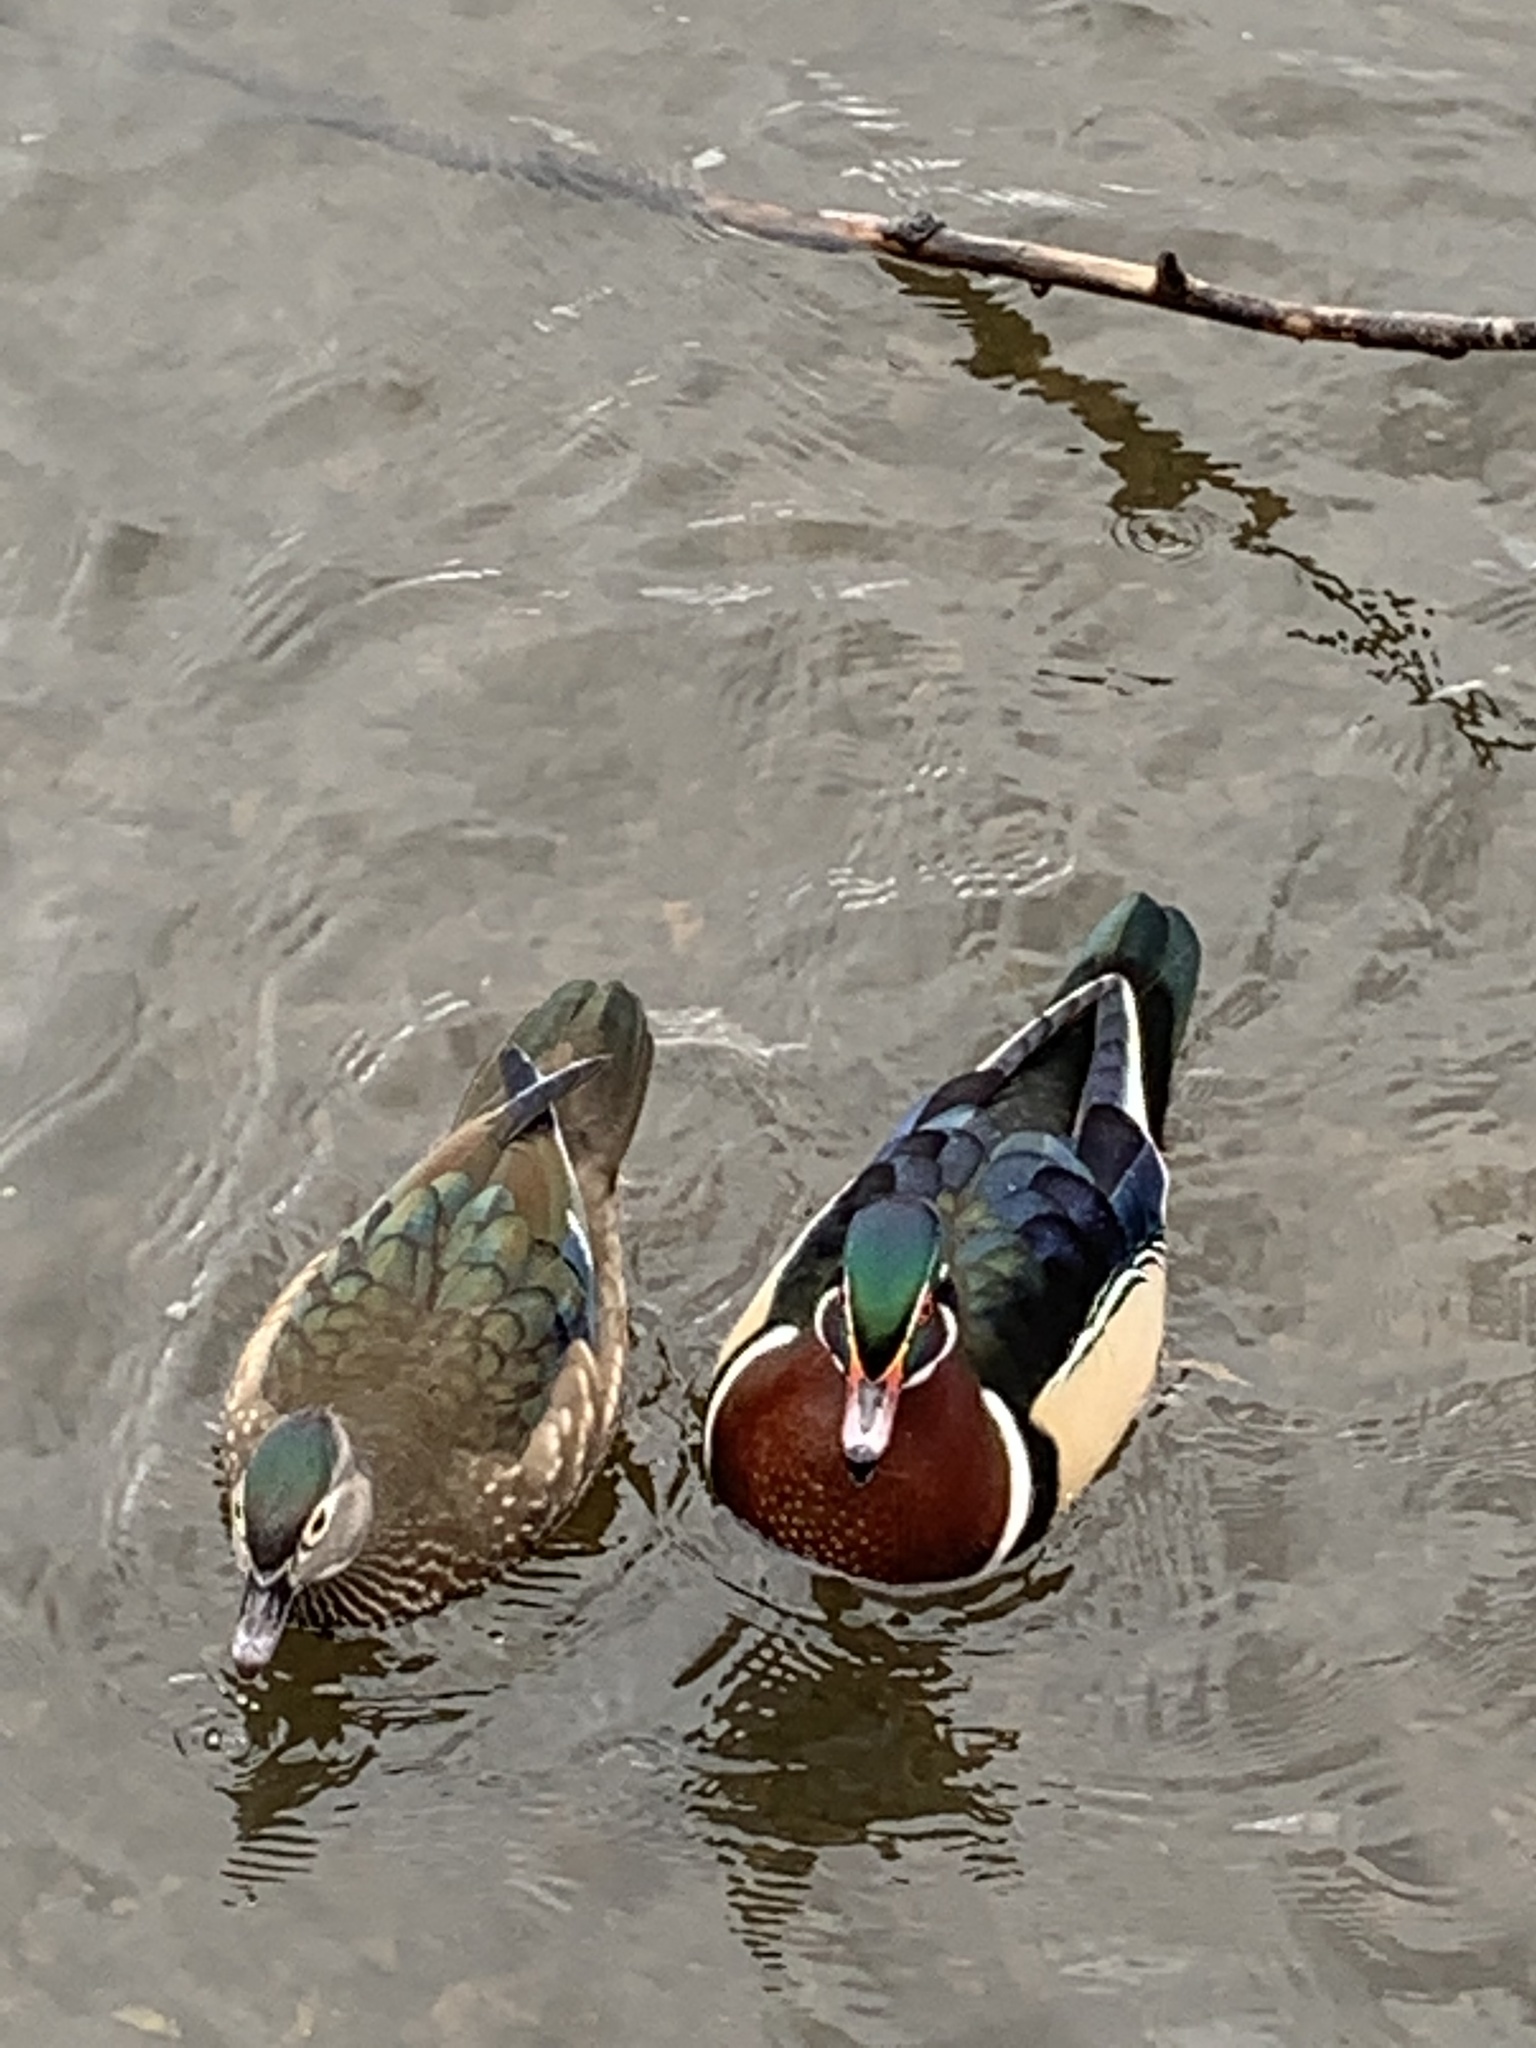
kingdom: Animalia
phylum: Chordata
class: Aves
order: Anseriformes
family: Anatidae
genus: Aix
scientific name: Aix sponsa
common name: Wood duck
